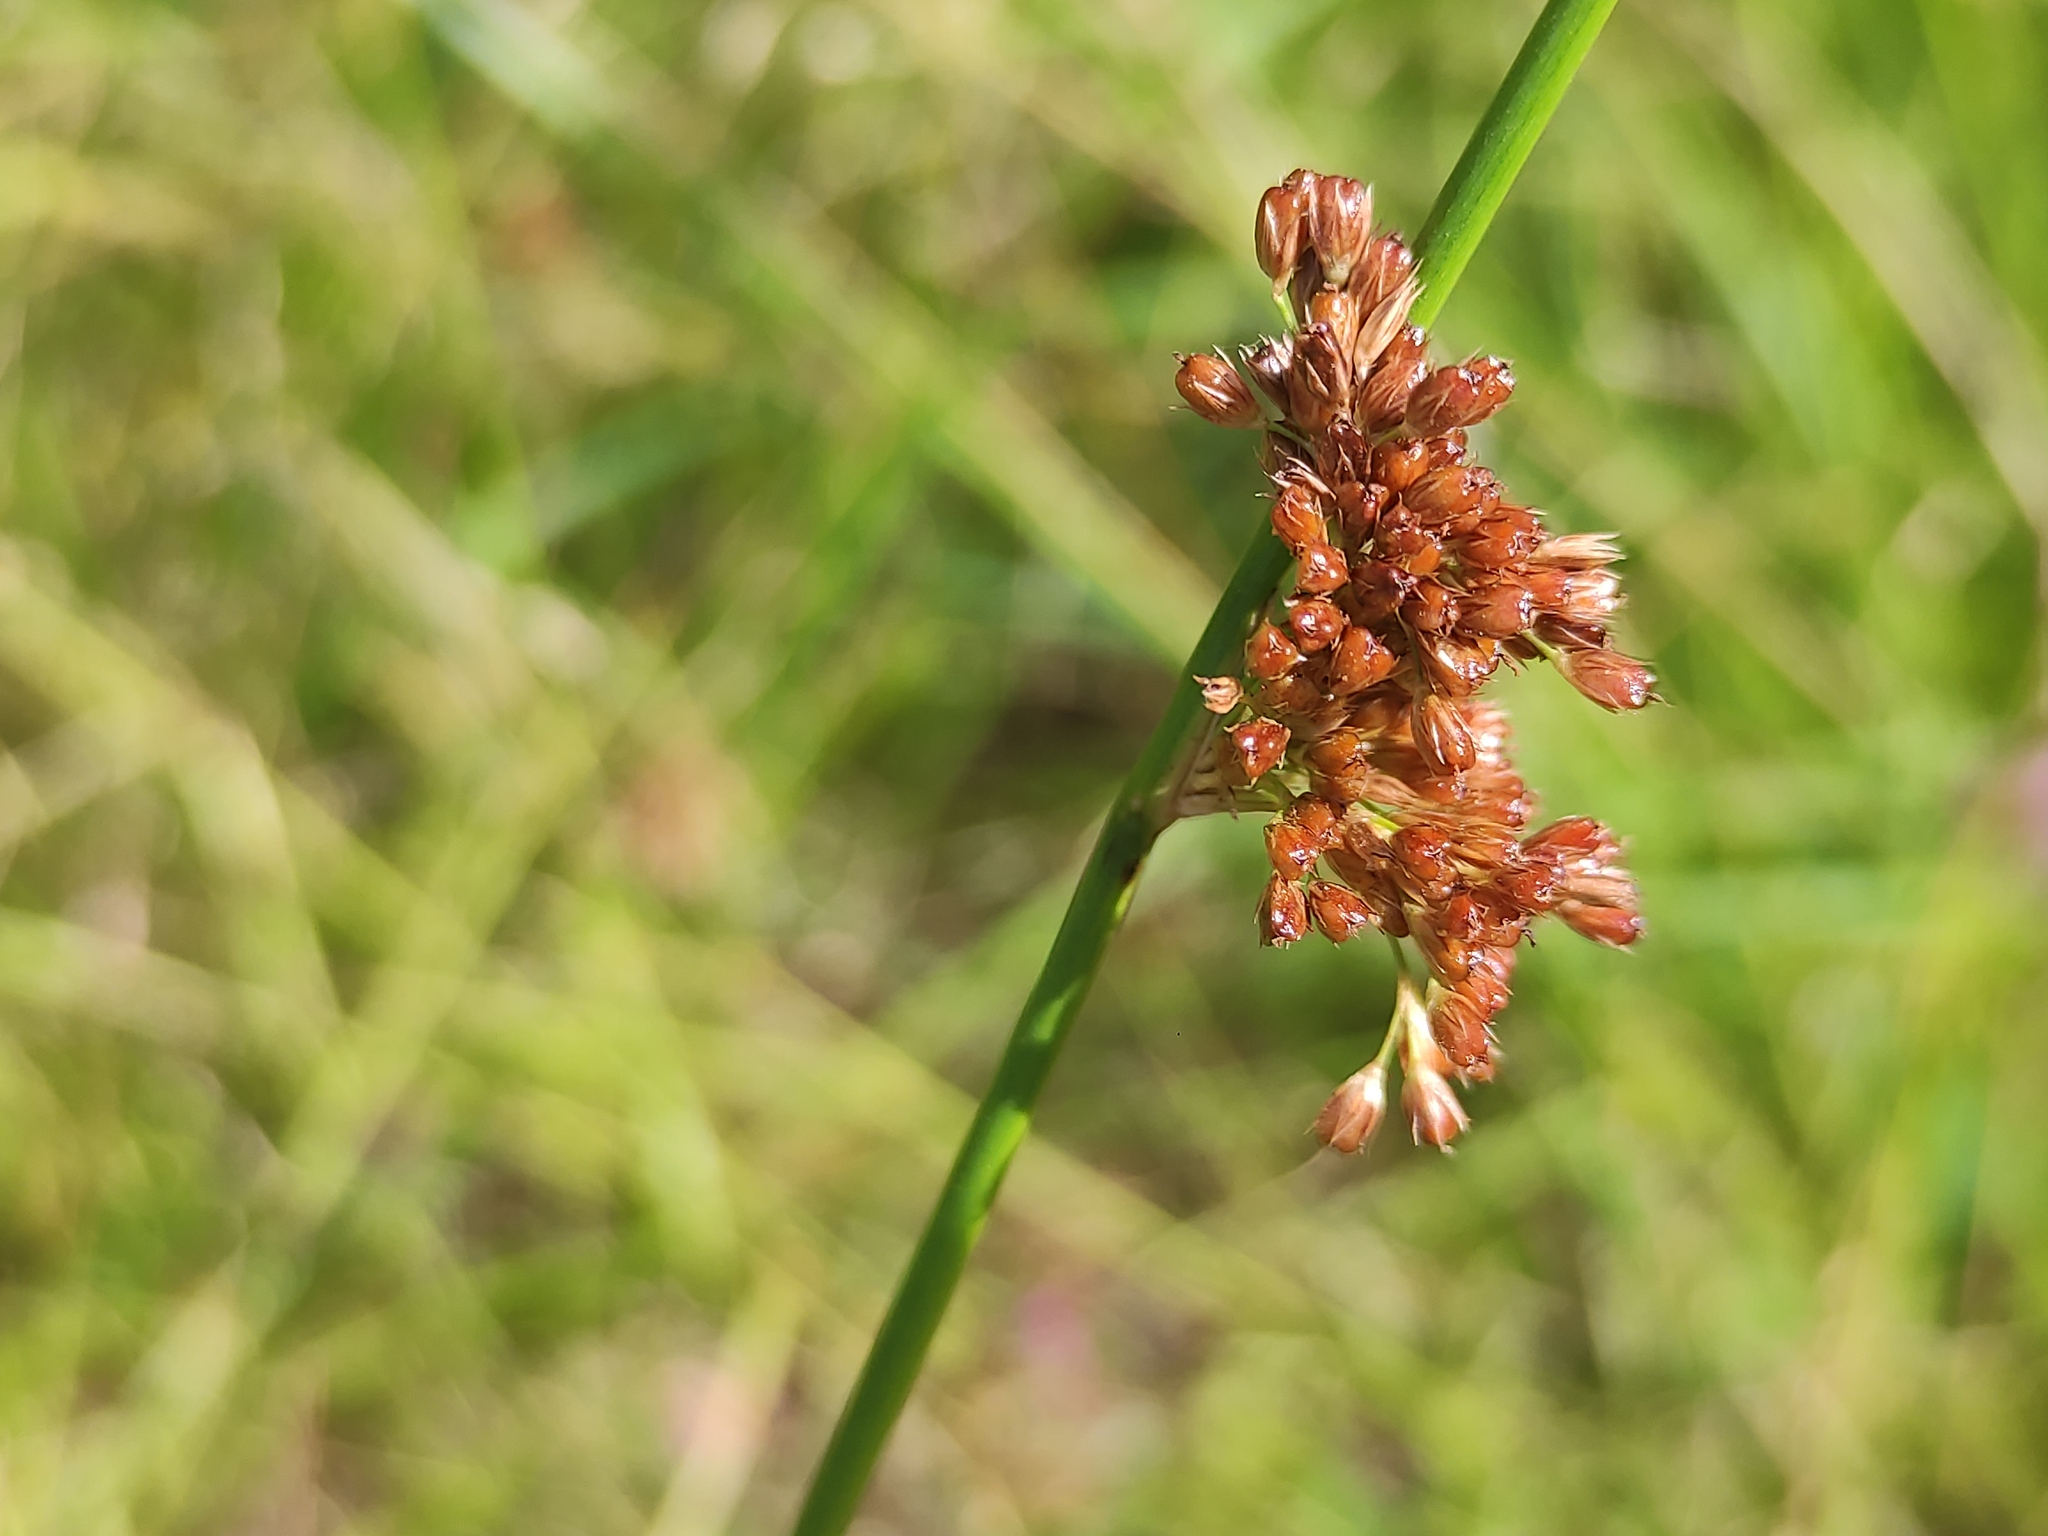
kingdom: Plantae
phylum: Tracheophyta
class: Liliopsida
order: Poales
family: Juncaceae
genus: Juncus
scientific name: Juncus effusus
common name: Soft rush
